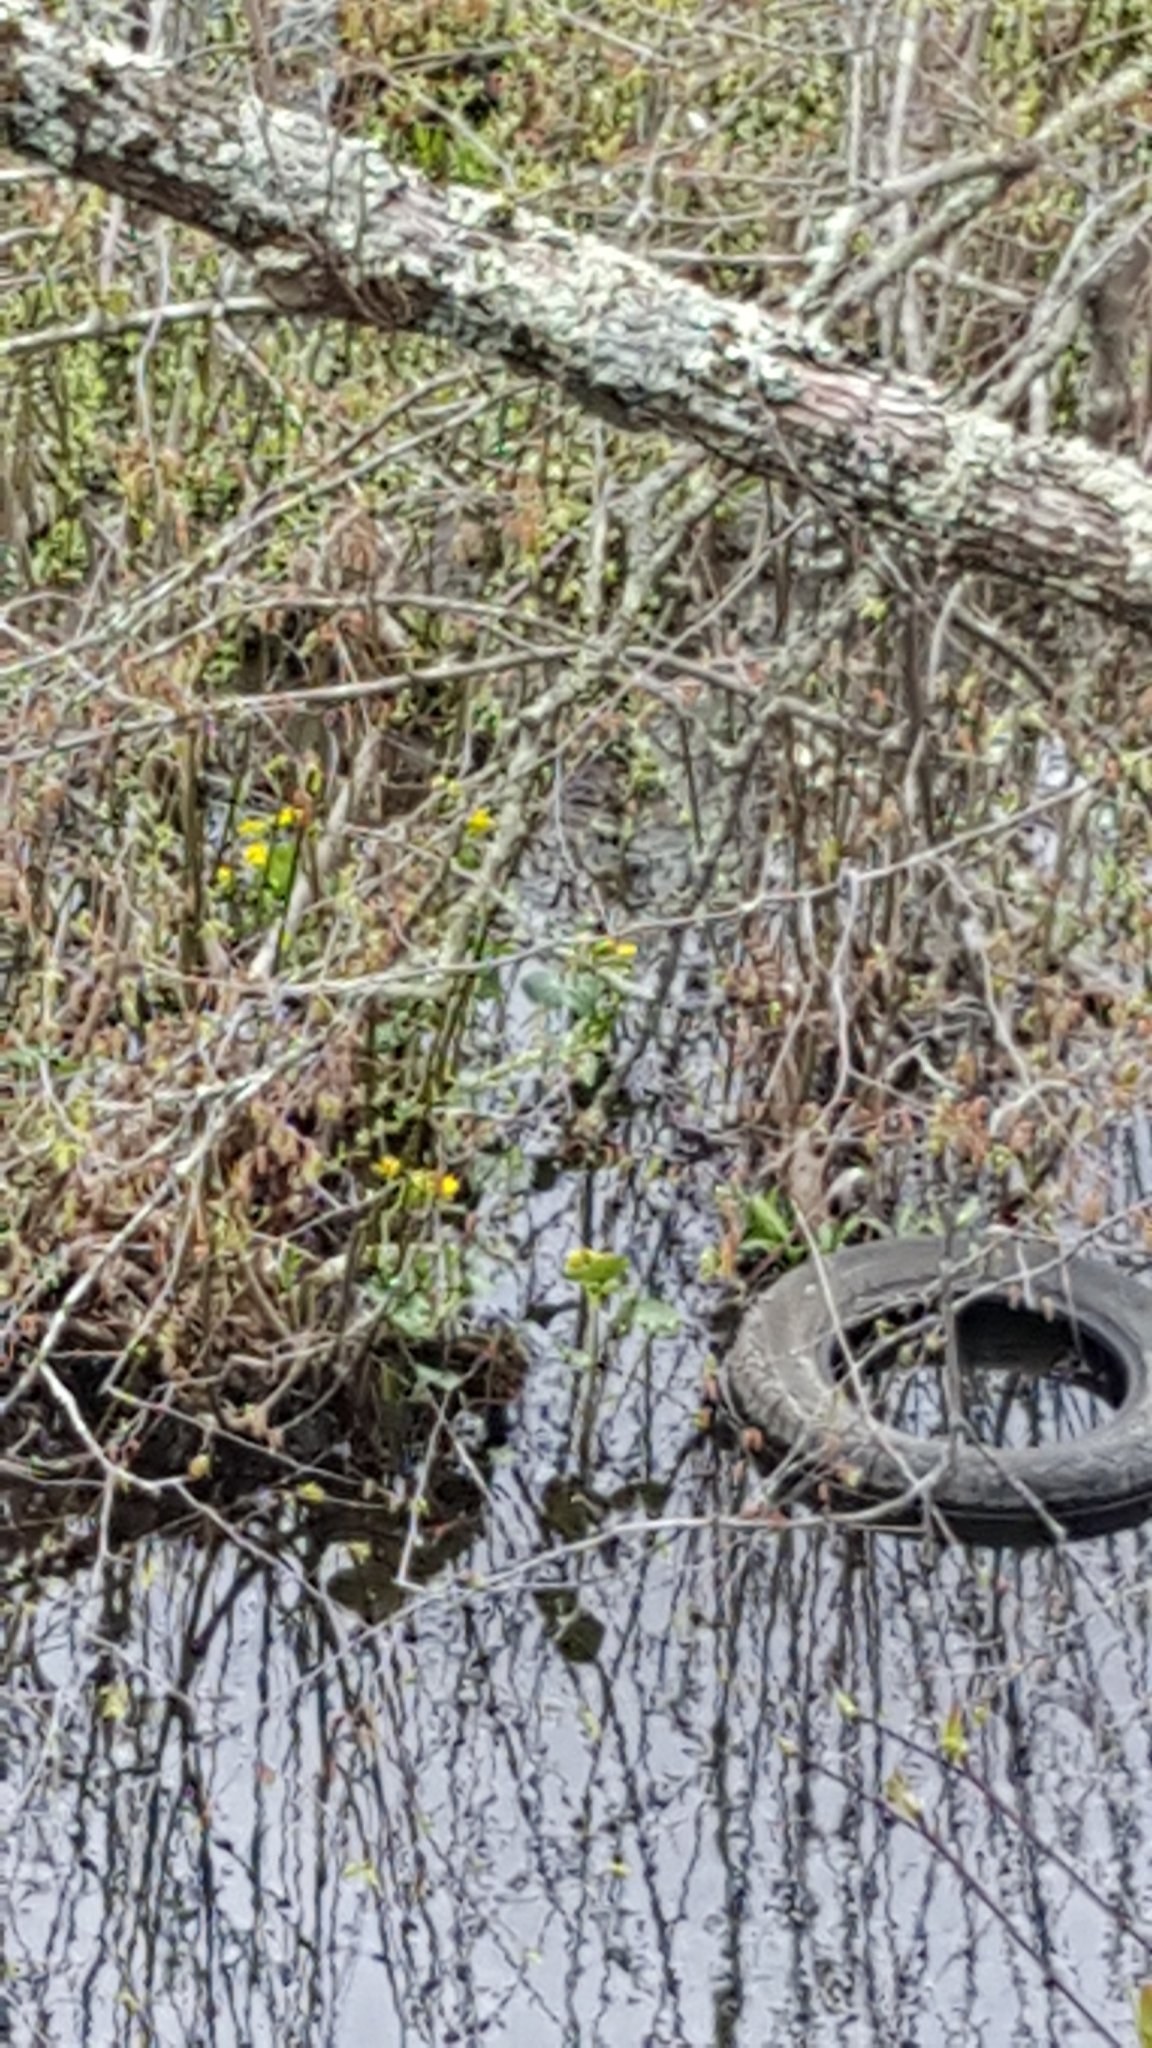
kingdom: Plantae
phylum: Tracheophyta
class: Magnoliopsida
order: Ranunculales
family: Ranunculaceae
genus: Caltha
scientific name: Caltha palustris
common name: Marsh marigold
